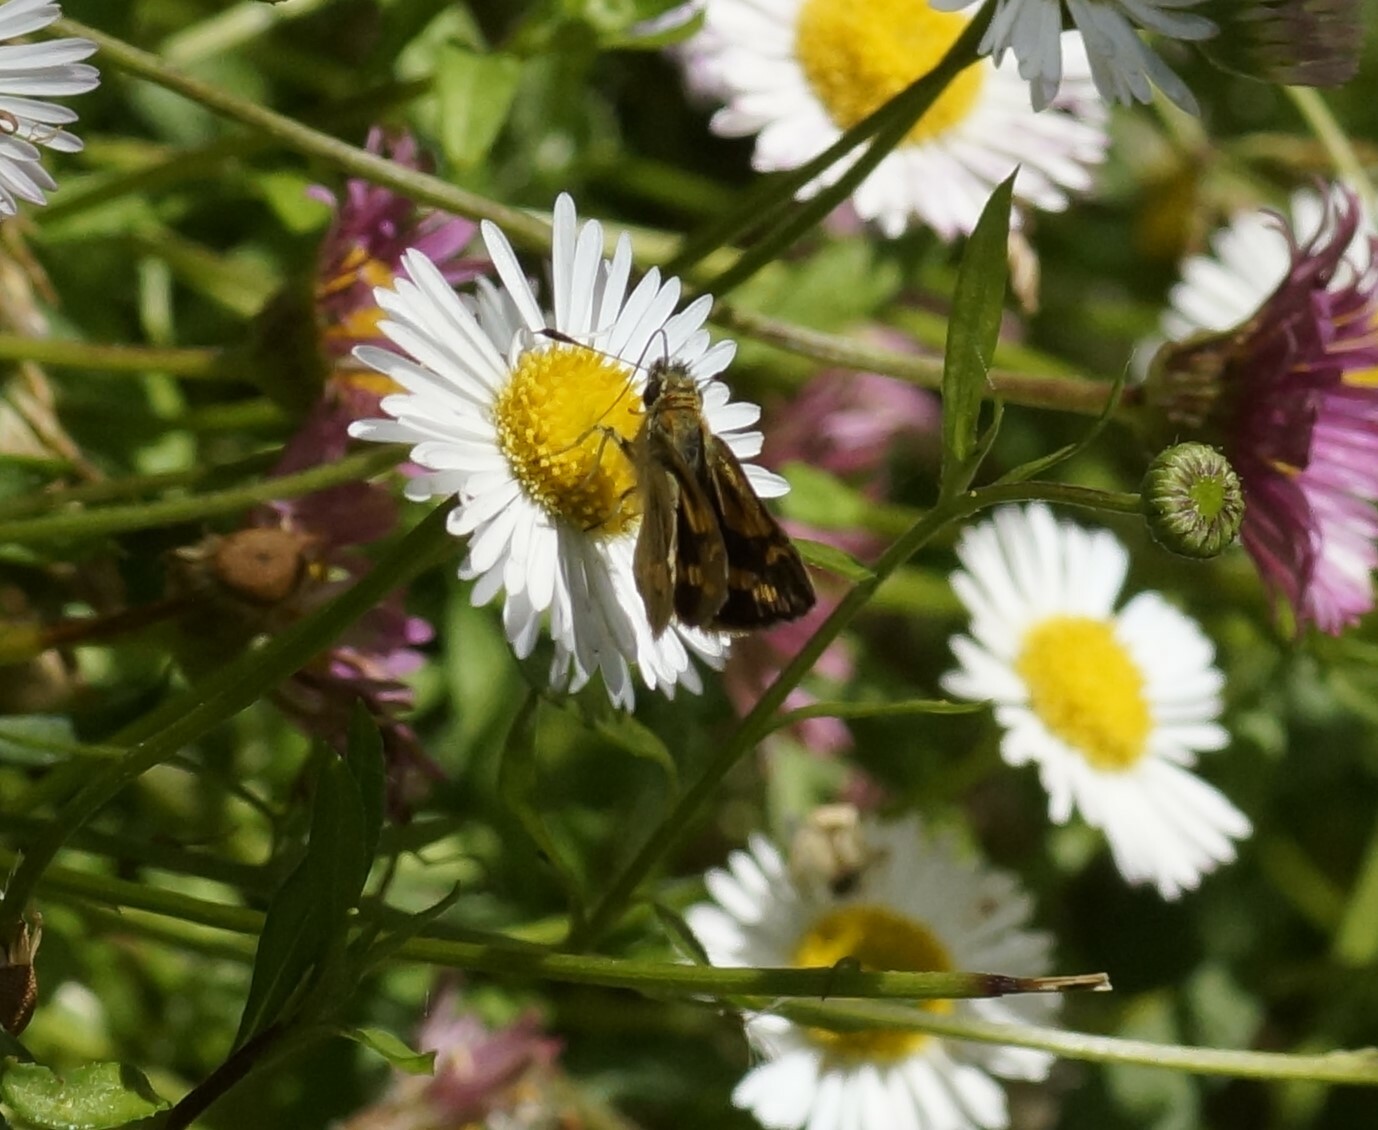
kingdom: Animalia
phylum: Arthropoda
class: Insecta
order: Lepidoptera
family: Hesperiidae
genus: Ocybadistes
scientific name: Ocybadistes walkeri
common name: Yellow-banded dart
